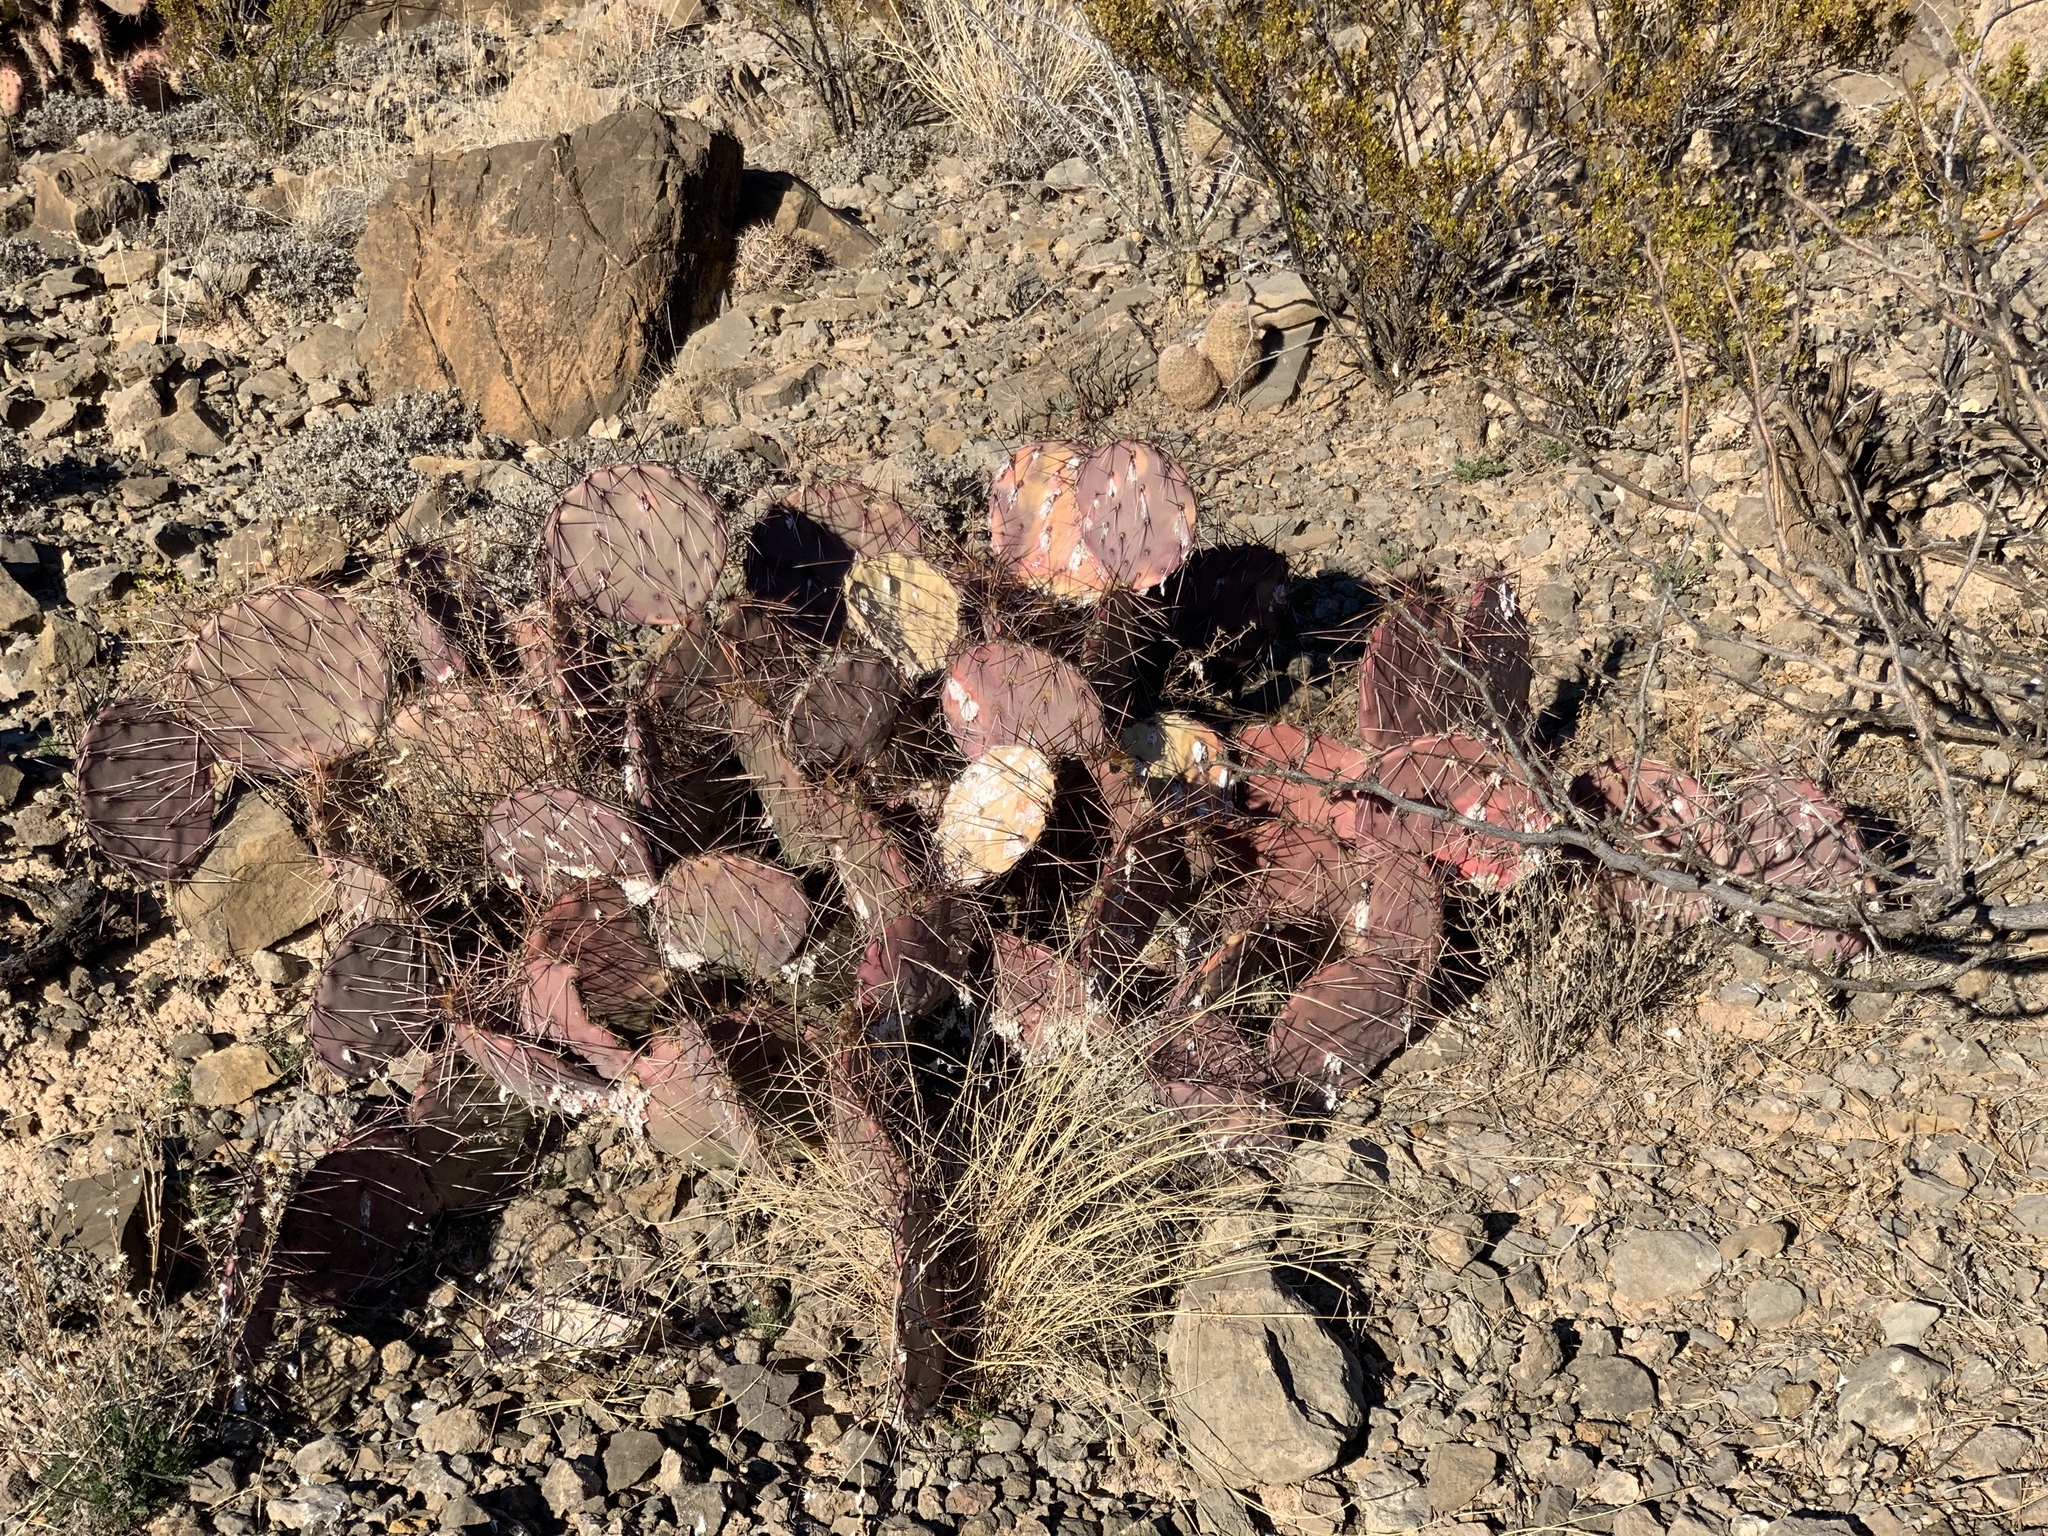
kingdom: Plantae
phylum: Tracheophyta
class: Magnoliopsida
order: Caryophyllales
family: Cactaceae
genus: Opuntia
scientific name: Opuntia macrocentra
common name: Purple prickly-pear
